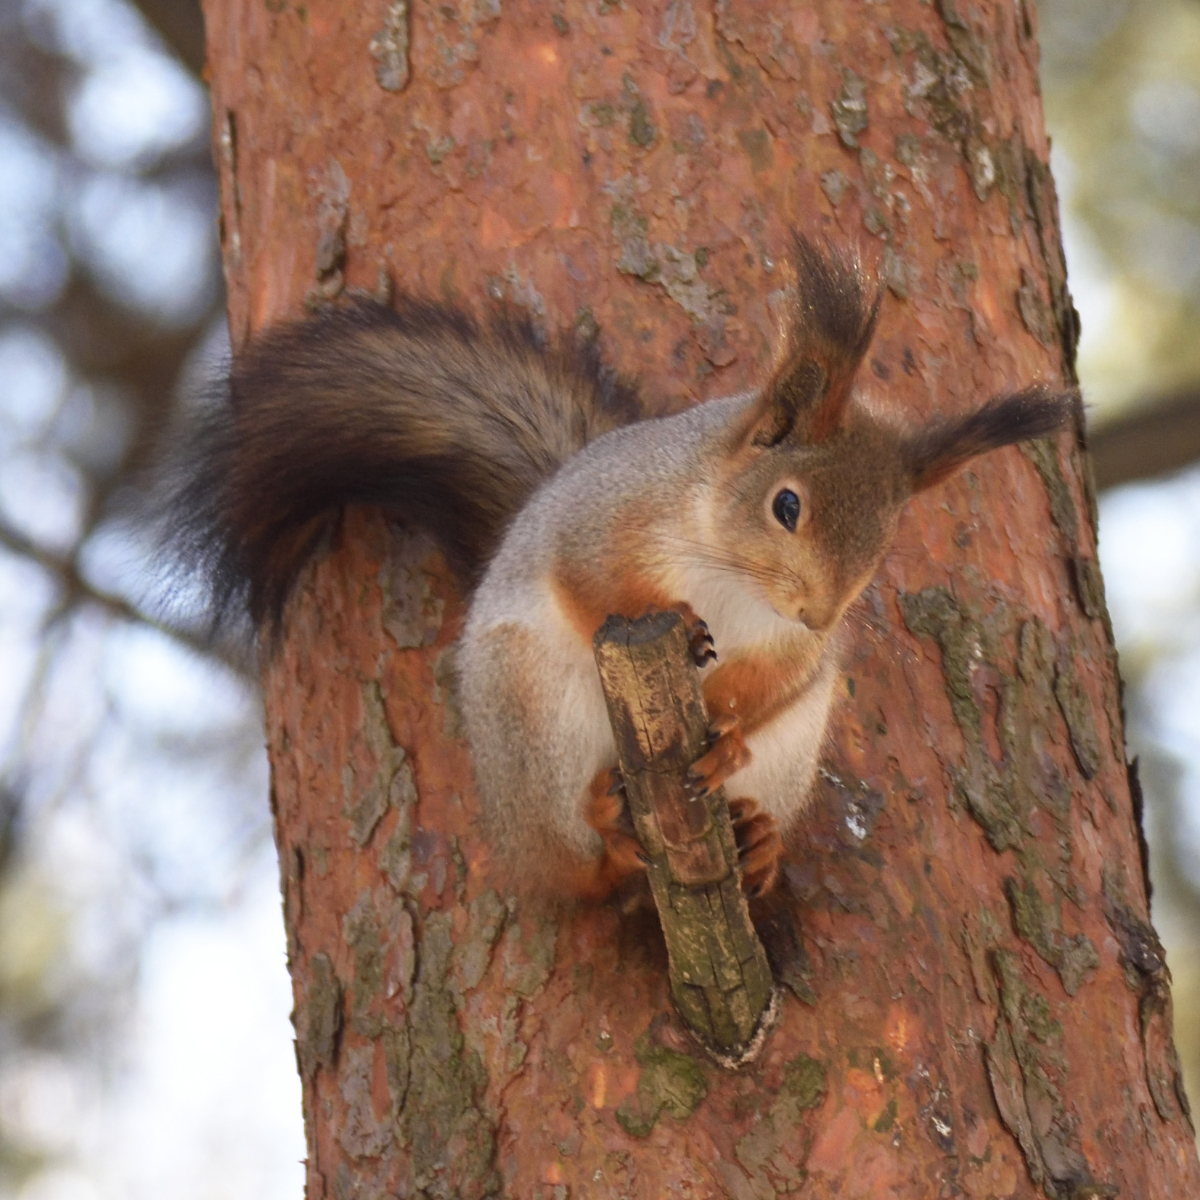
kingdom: Animalia
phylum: Chordata
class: Mammalia
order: Rodentia
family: Sciuridae
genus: Sciurus
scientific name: Sciurus vulgaris
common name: Eurasian red squirrel
